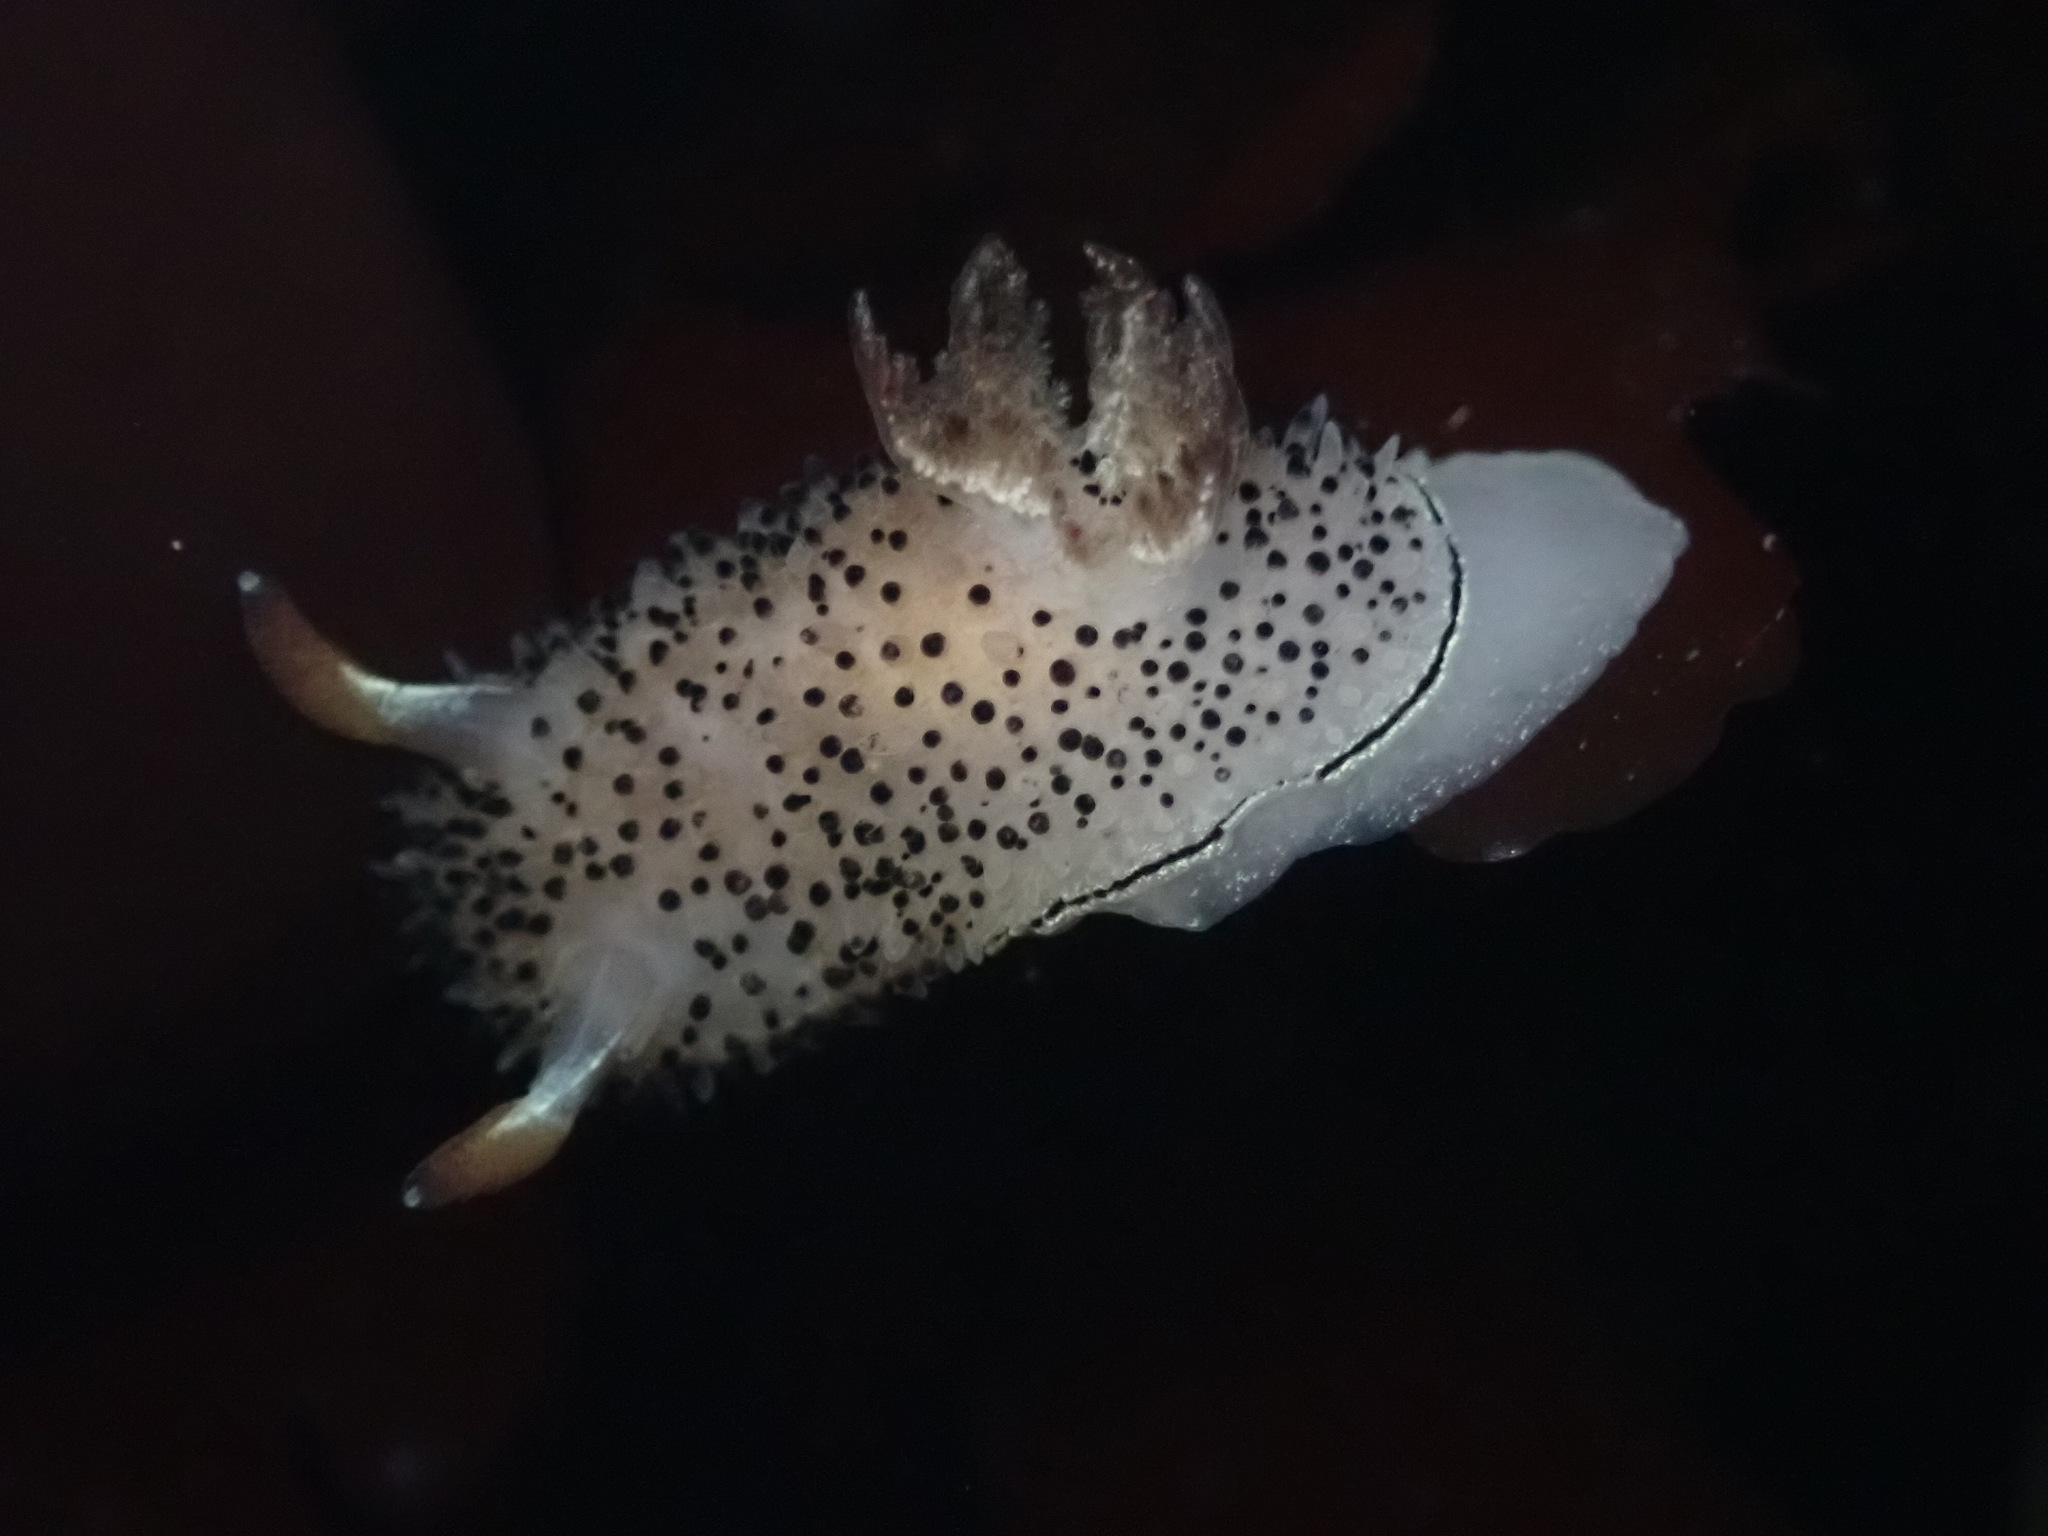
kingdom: Animalia
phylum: Mollusca
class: Gastropoda
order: Nudibranchia
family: Onchidorididae
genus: Acanthodoris
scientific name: Acanthodoris rhodoceras
